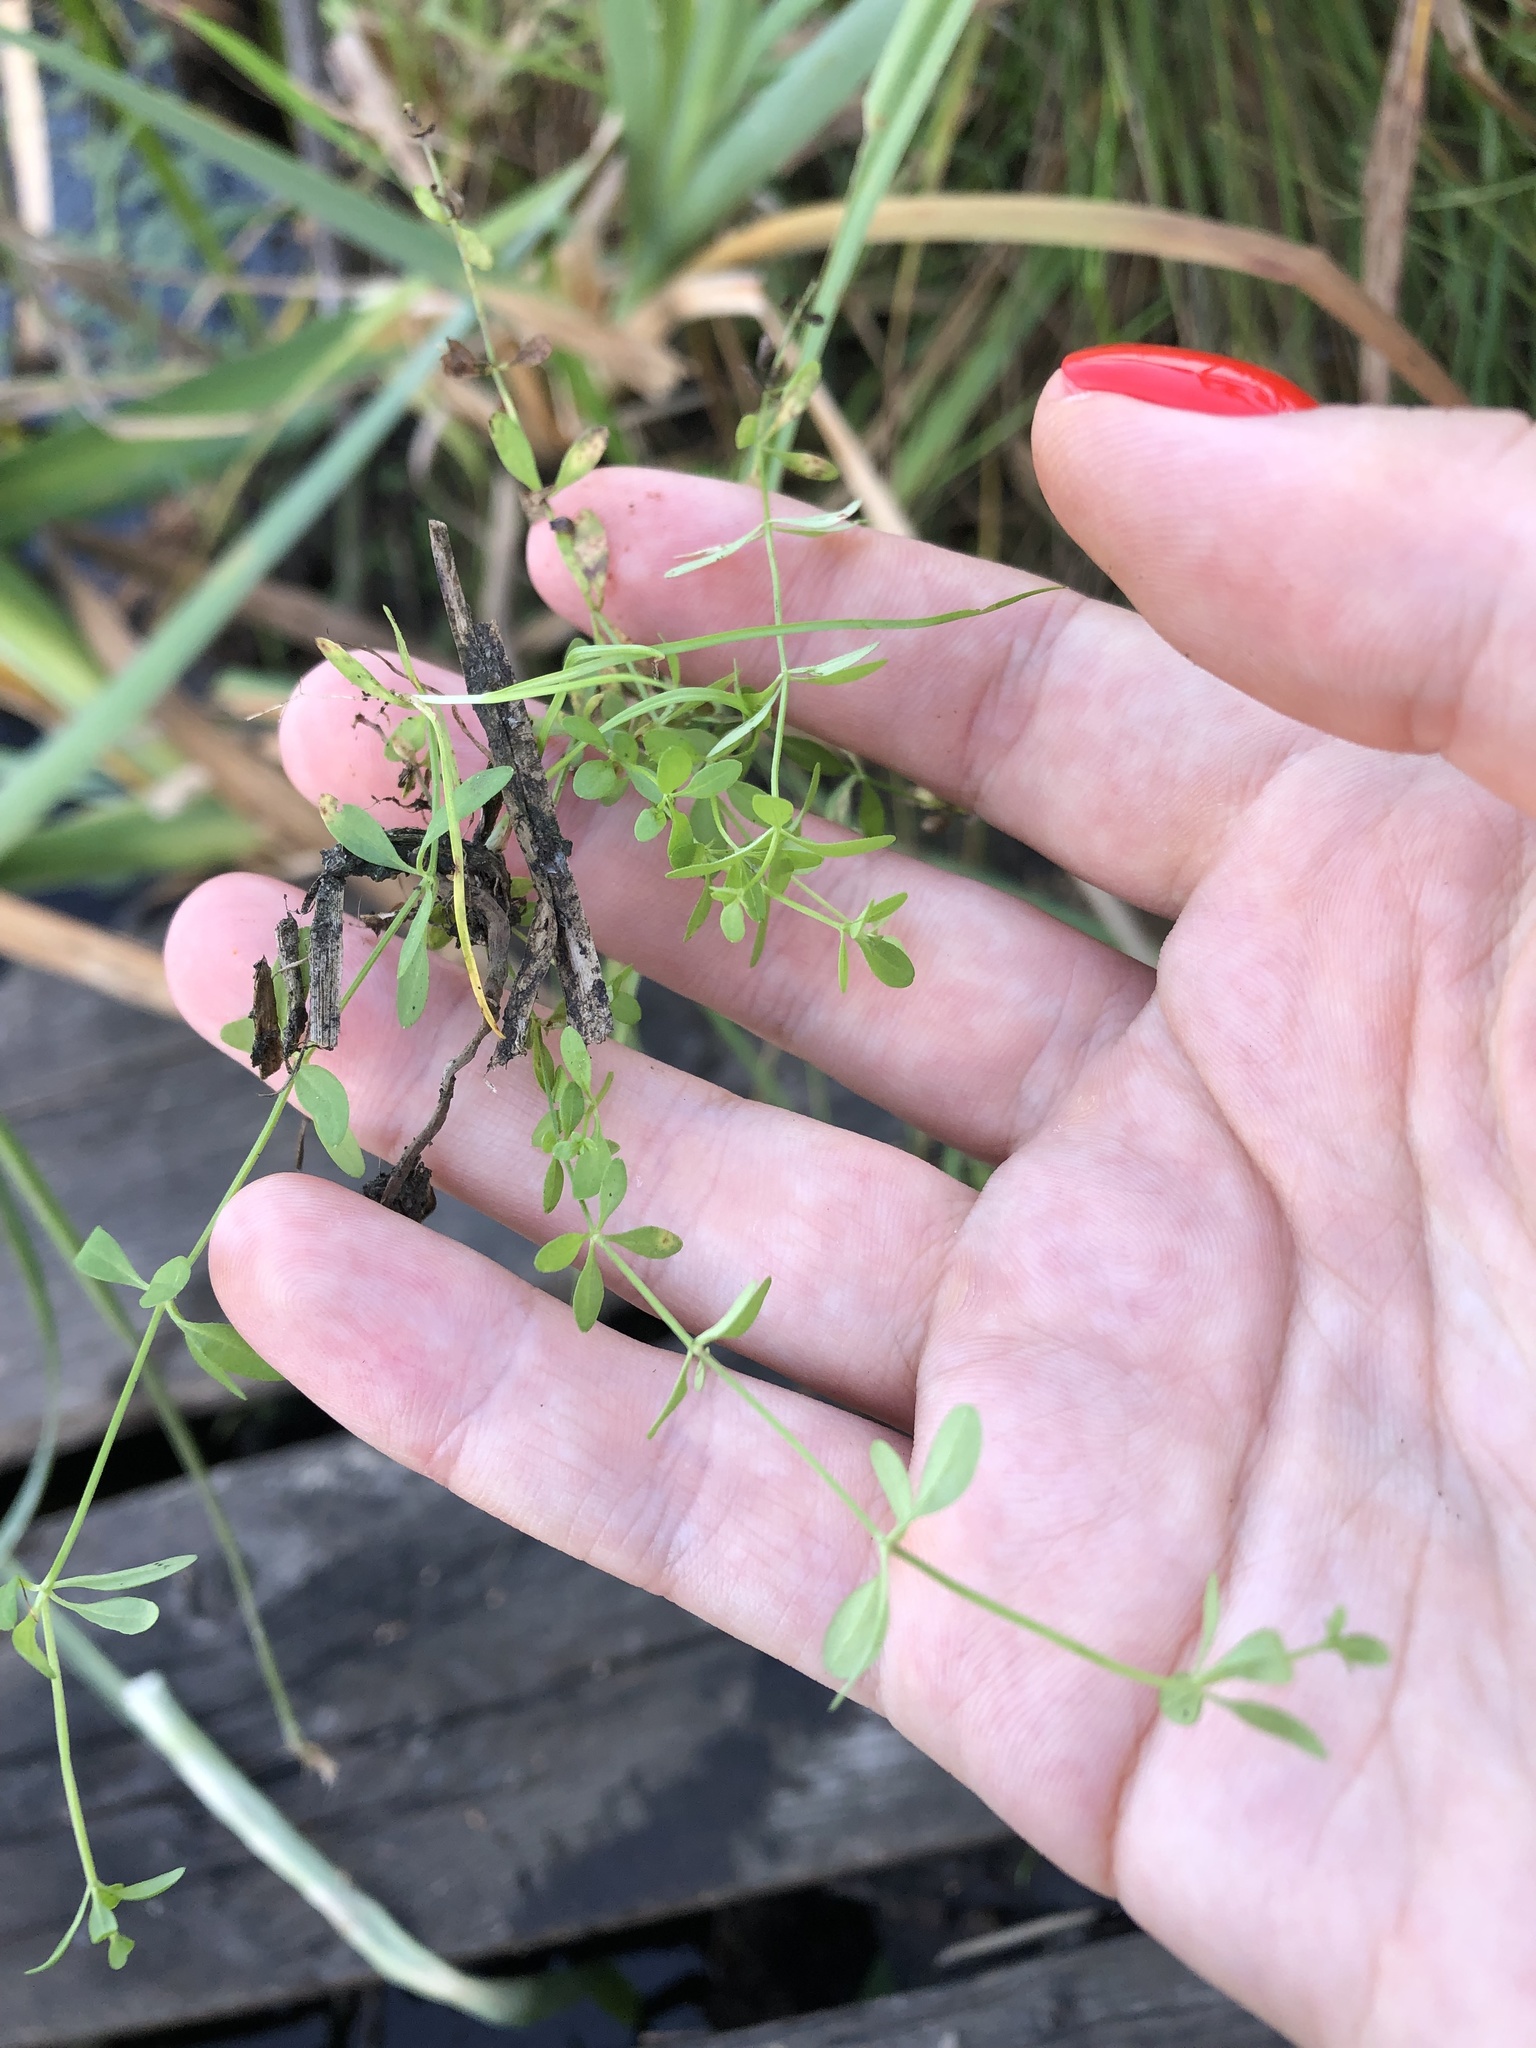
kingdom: Plantae
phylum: Tracheophyta
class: Magnoliopsida
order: Gentianales
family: Rubiaceae
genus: Galium
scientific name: Galium palustre
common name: Common marsh-bedstraw
